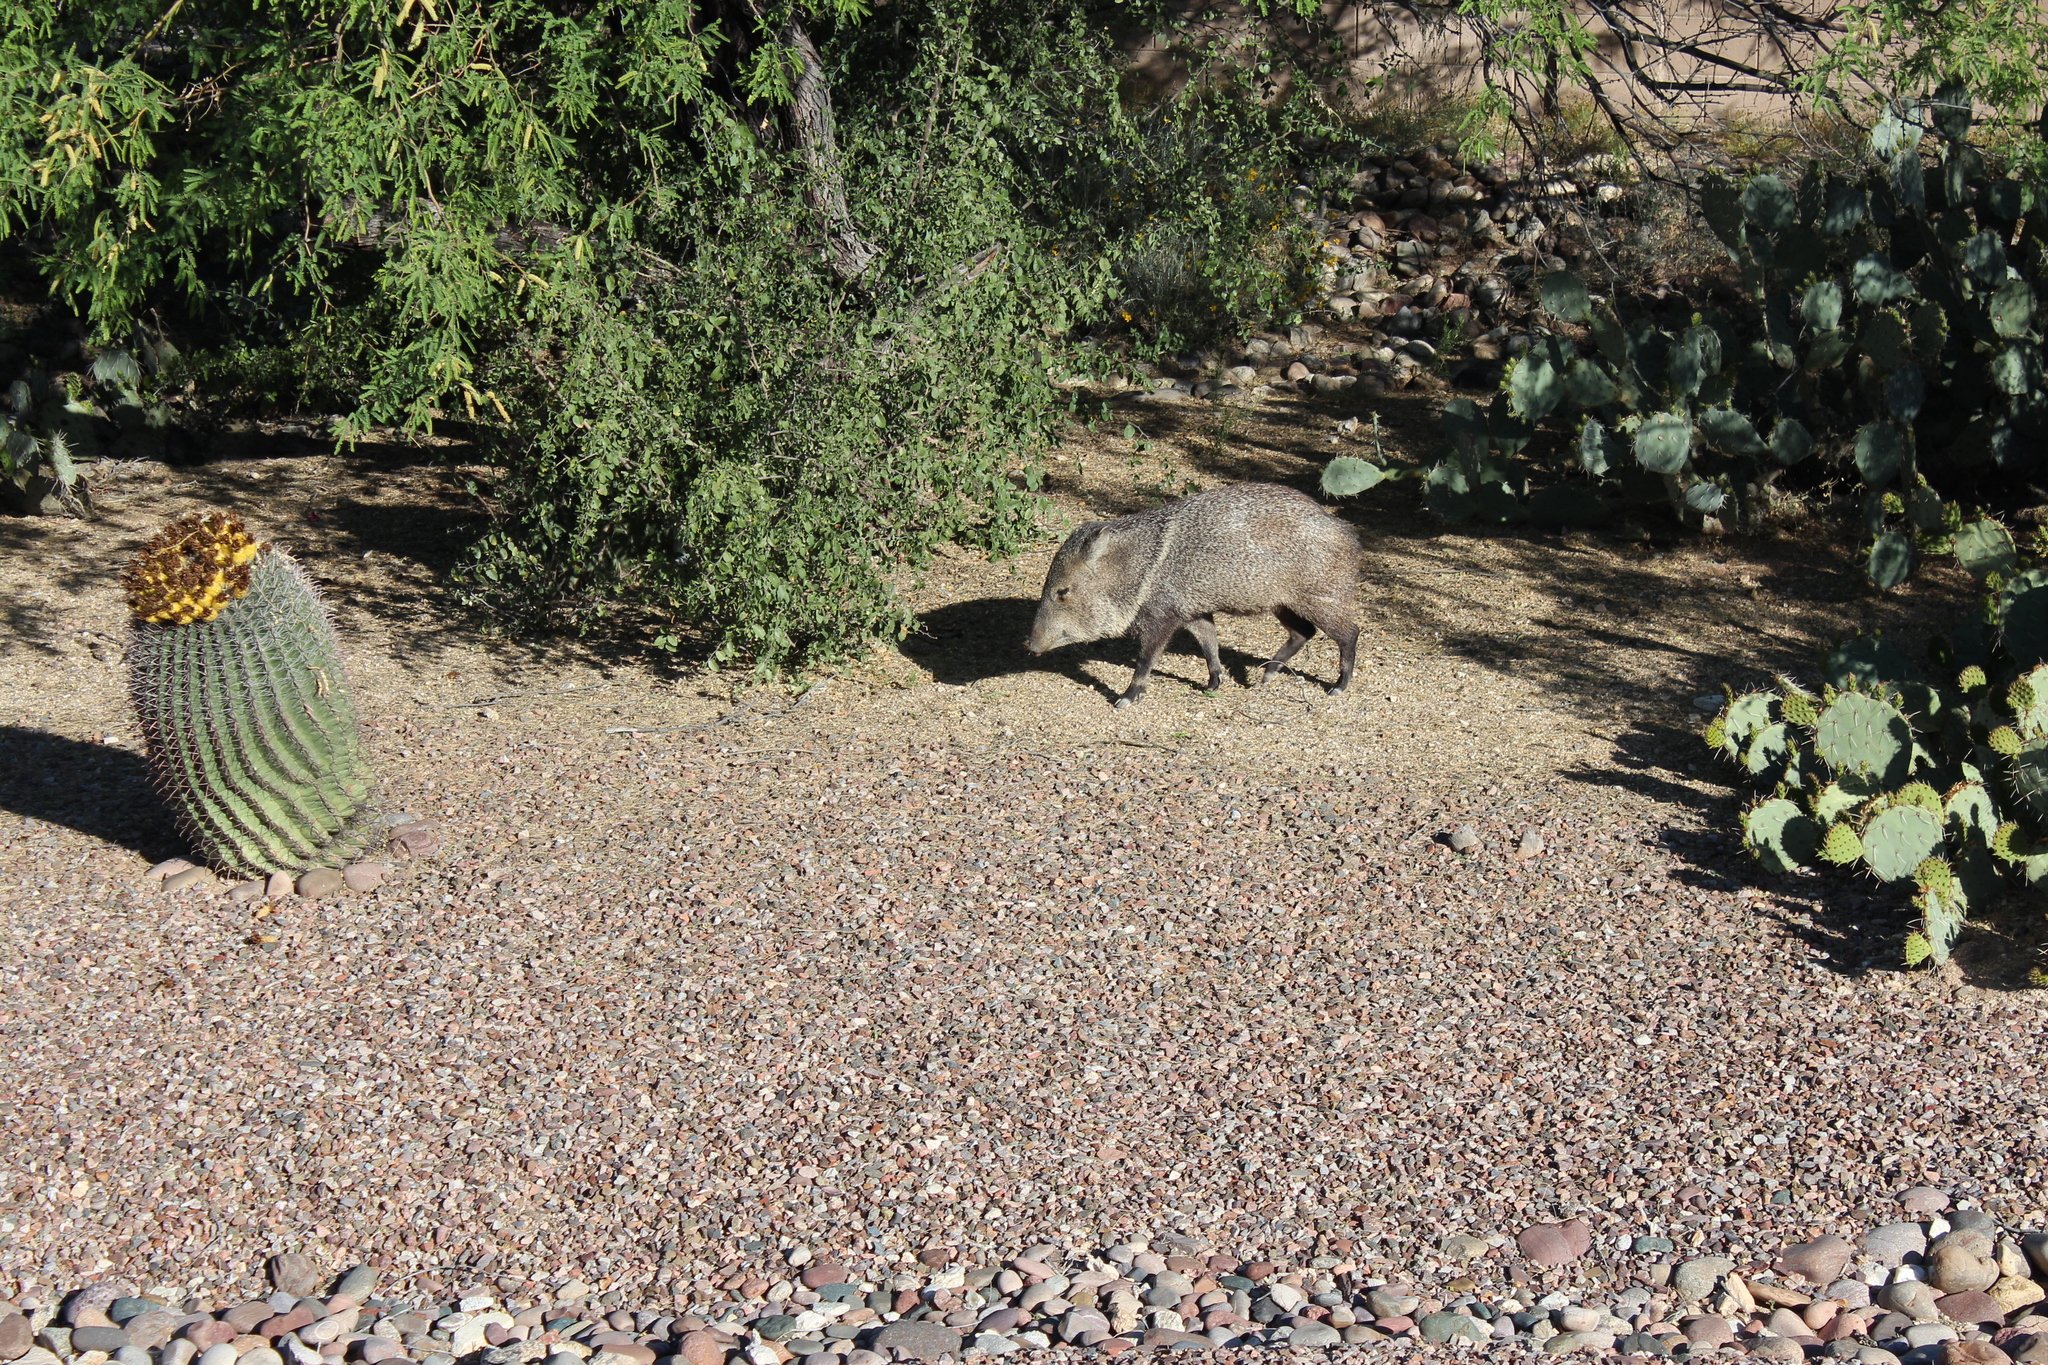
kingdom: Animalia
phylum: Chordata
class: Mammalia
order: Artiodactyla
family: Tayassuidae
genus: Pecari
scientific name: Pecari tajacu
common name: Collared peccary
